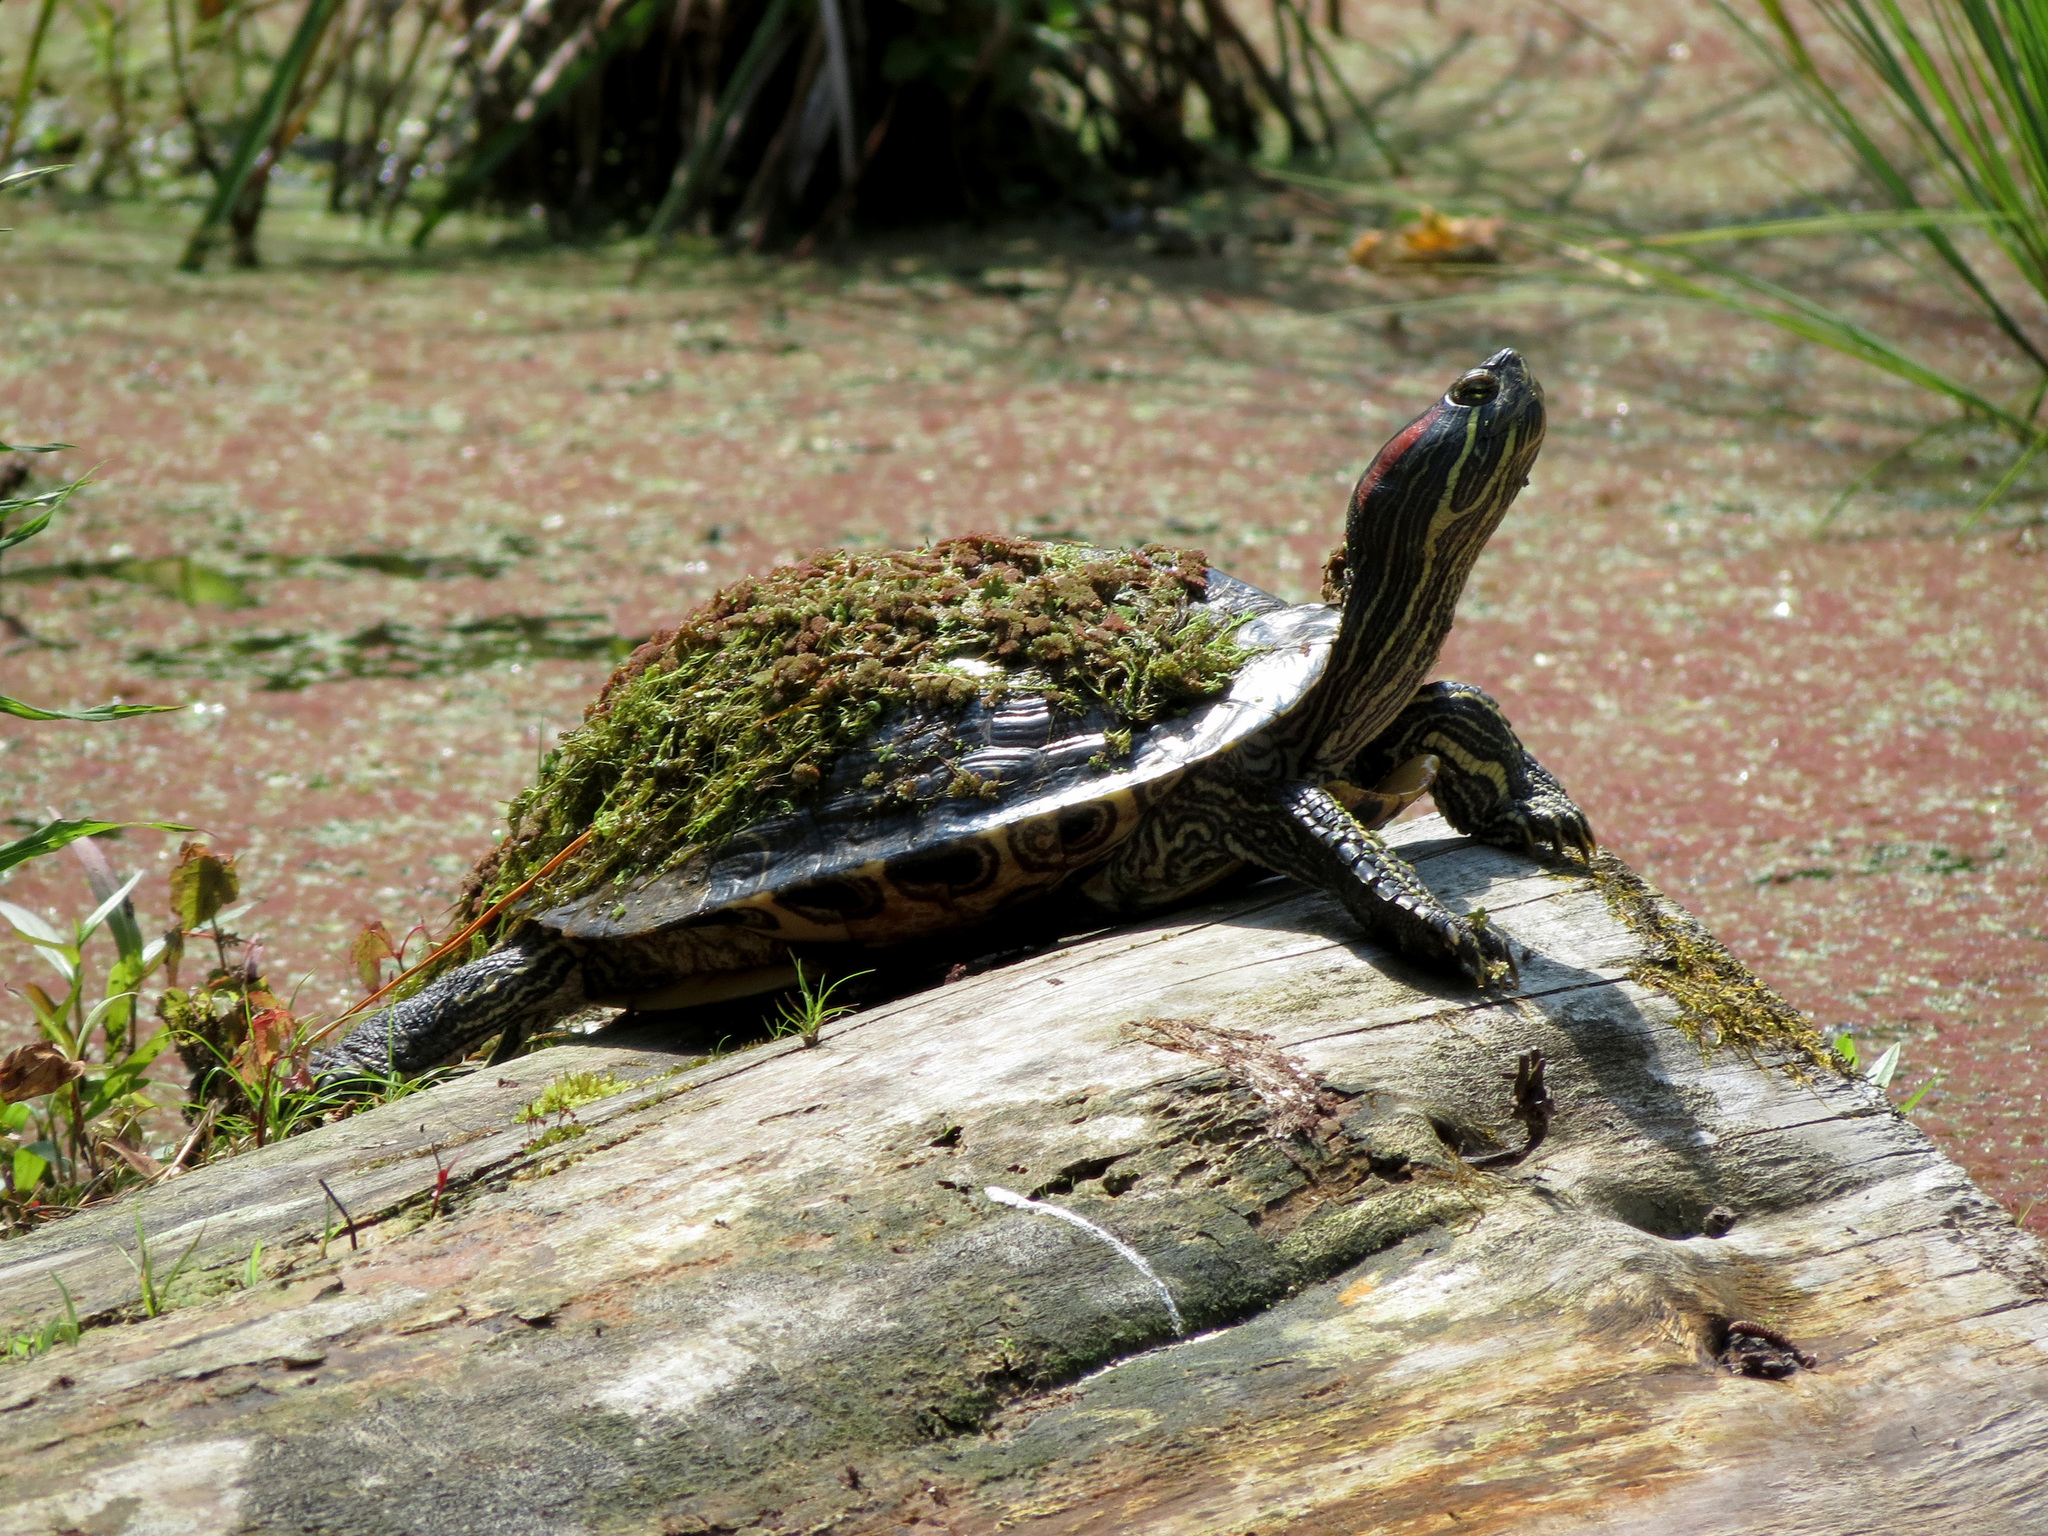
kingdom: Animalia
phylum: Chordata
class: Testudines
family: Emydidae
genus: Trachemys
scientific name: Trachemys scripta
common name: Slider
